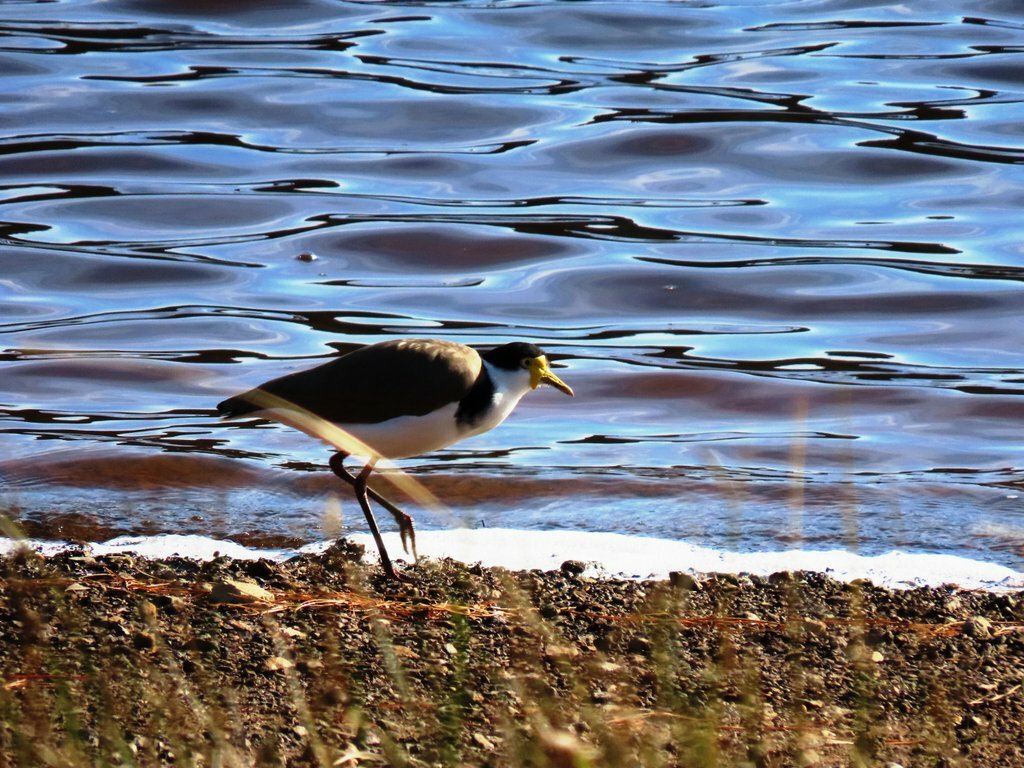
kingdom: Animalia
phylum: Chordata
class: Aves
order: Charadriiformes
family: Charadriidae
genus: Vanellus
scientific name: Vanellus miles
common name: Masked lapwing
